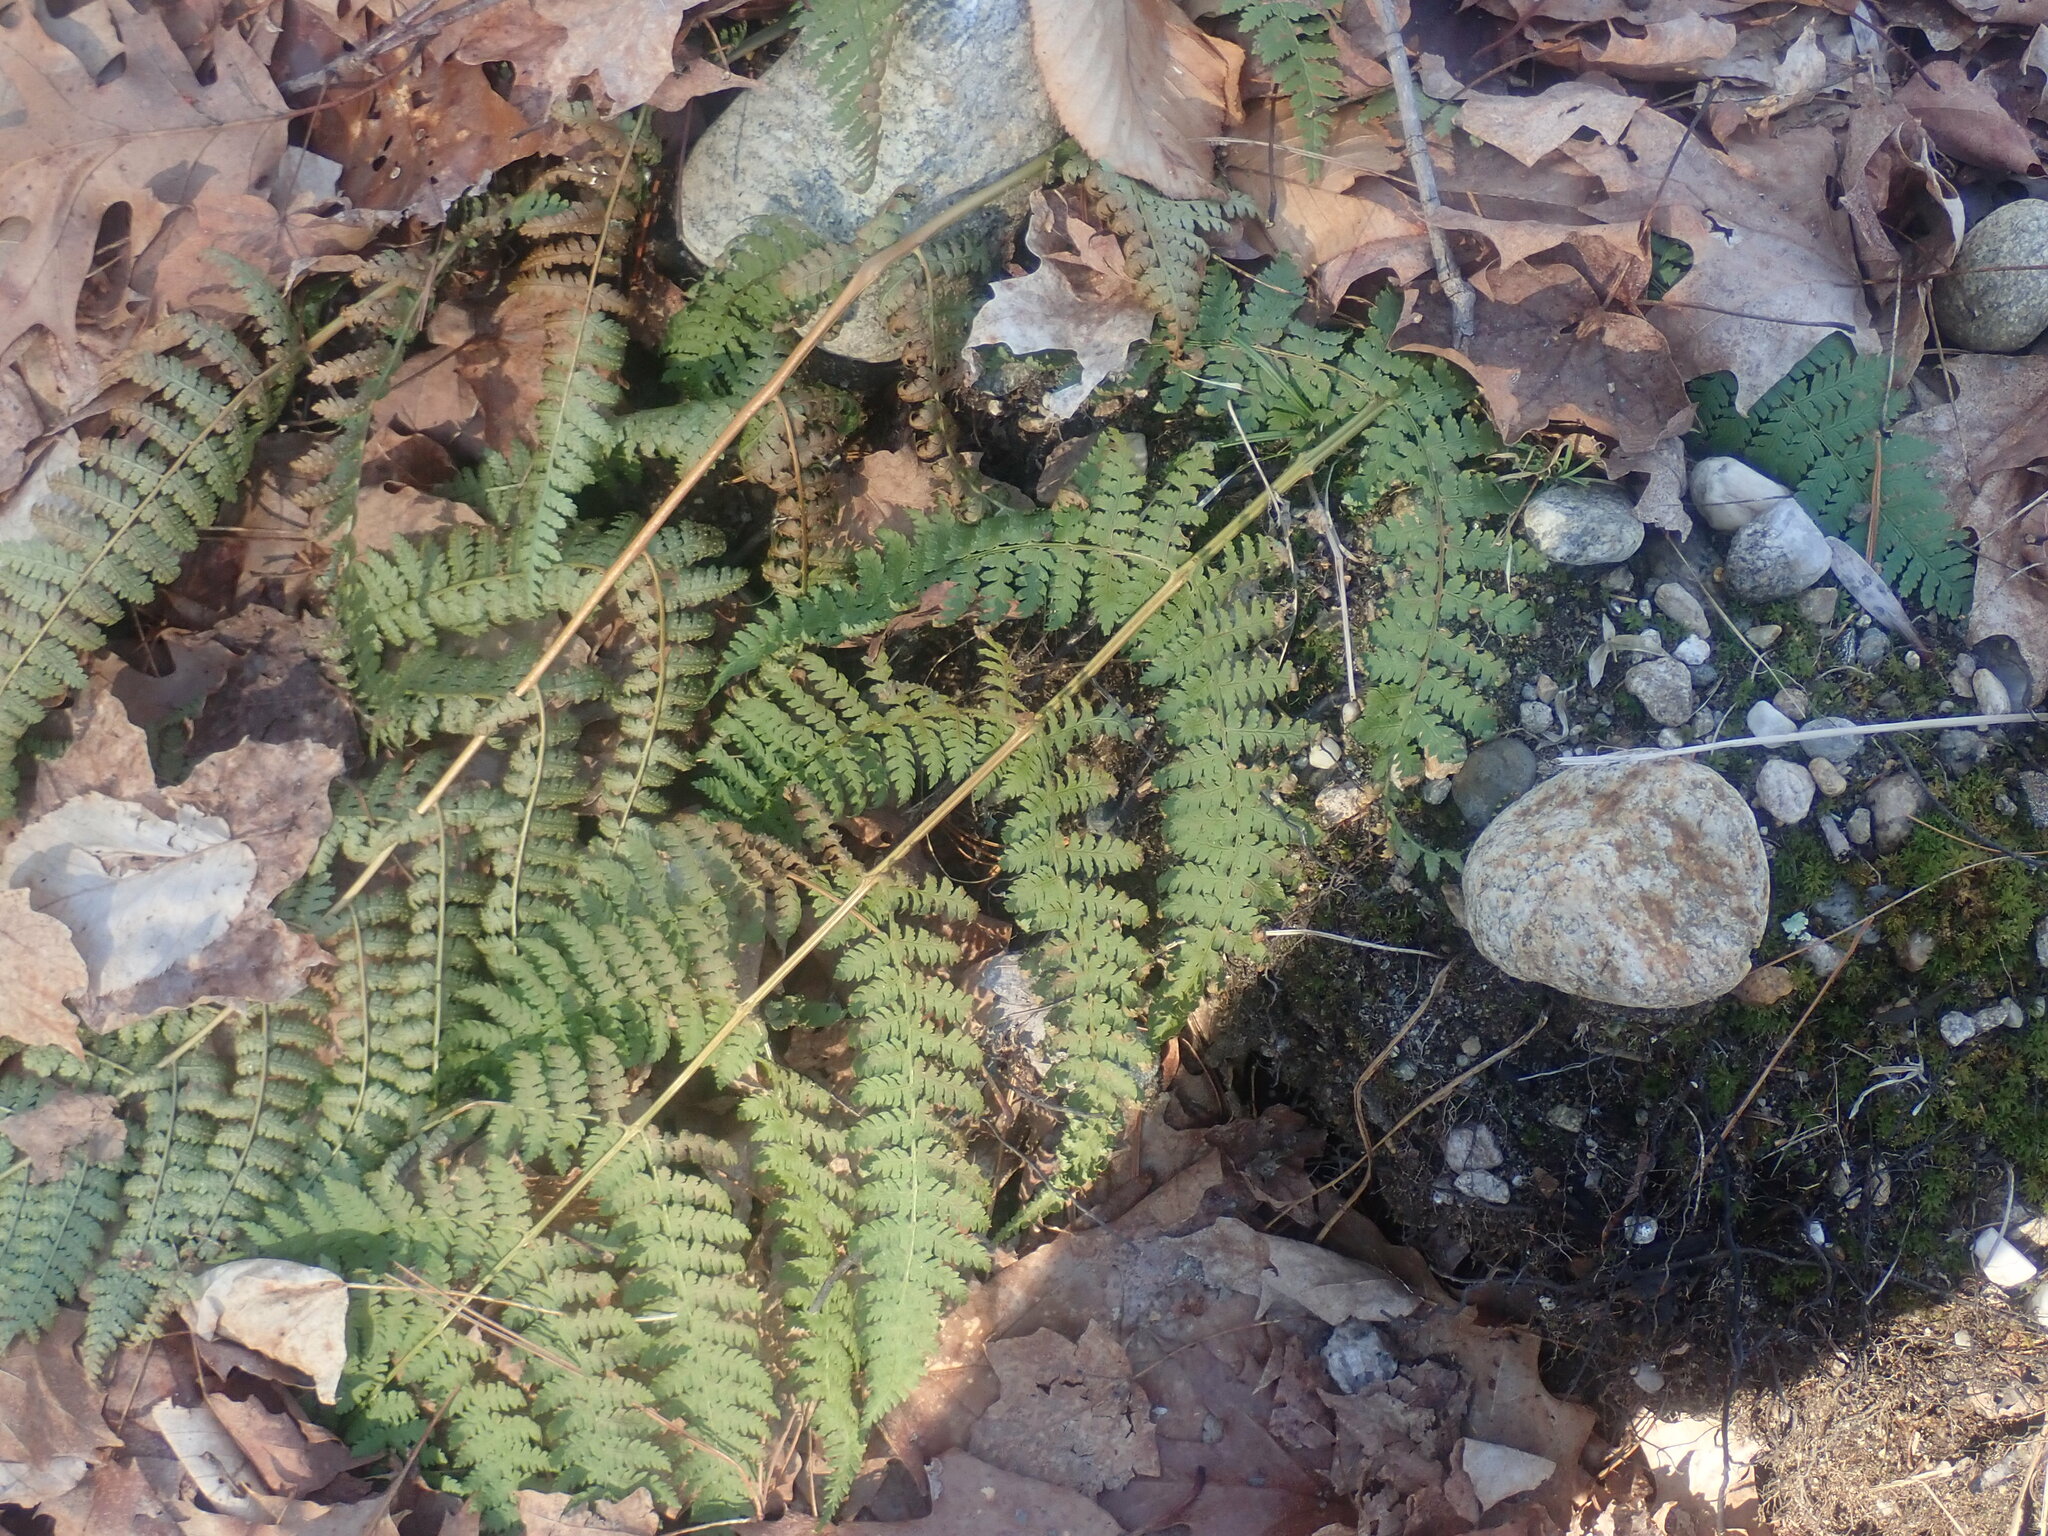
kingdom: Plantae
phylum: Tracheophyta
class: Polypodiopsida
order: Polypodiales
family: Dryopteridaceae
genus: Dryopteris
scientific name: Dryopteris intermedia
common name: Evergreen wood fern
